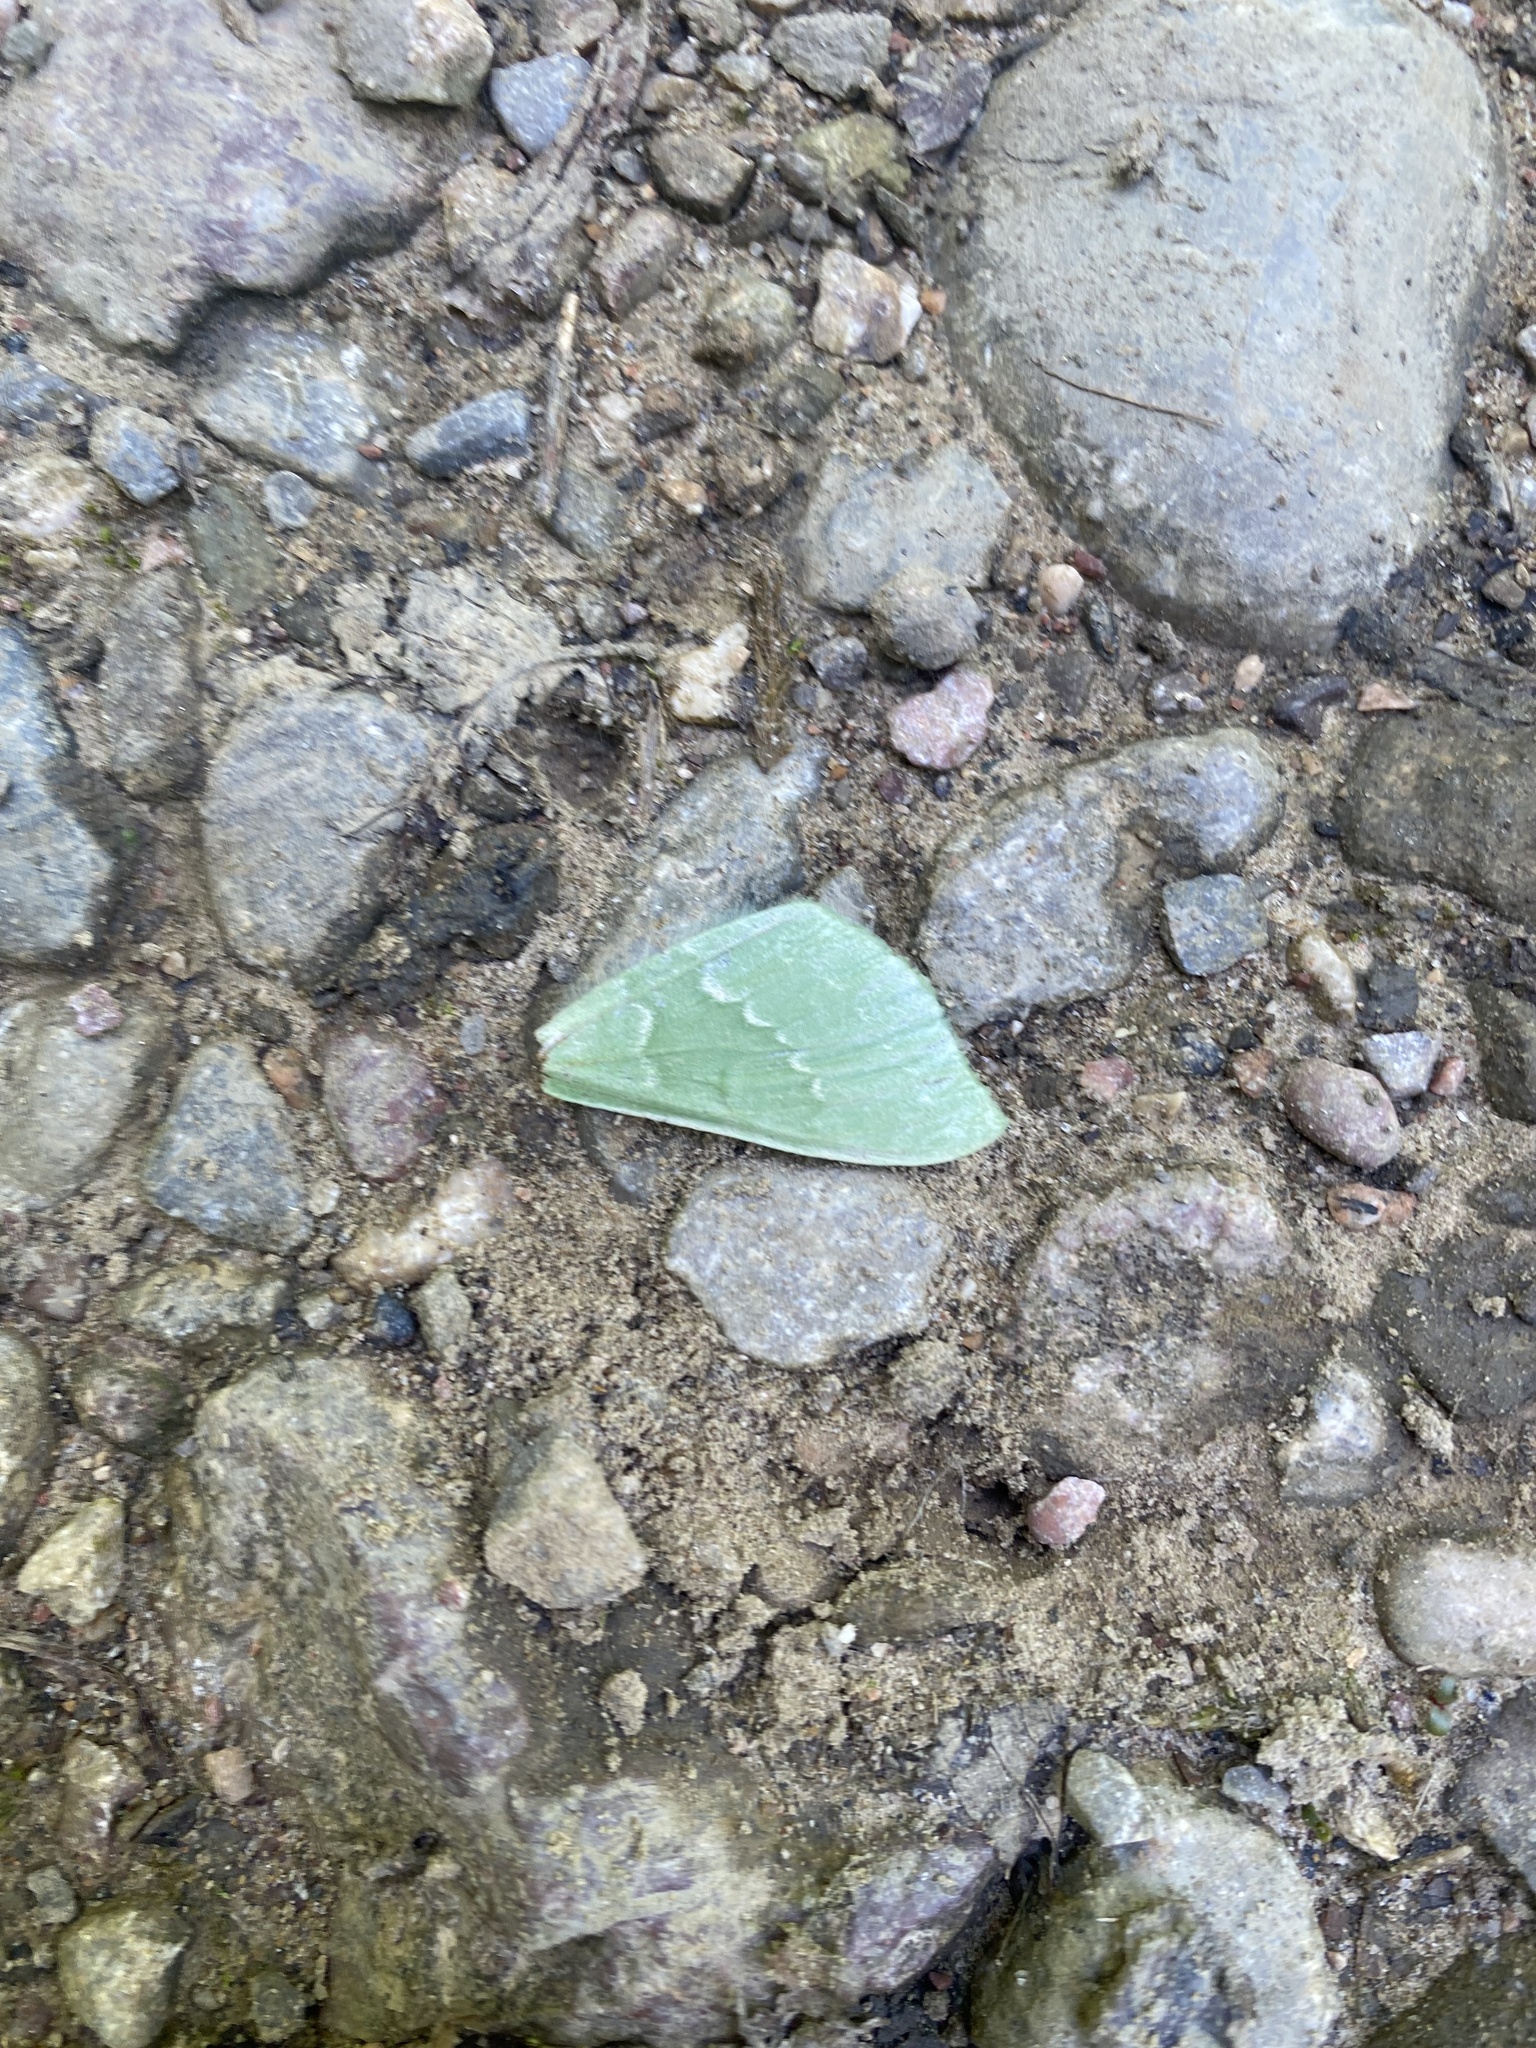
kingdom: Animalia
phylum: Arthropoda
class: Insecta
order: Lepidoptera
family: Geometridae
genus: Geometra
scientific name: Geometra papilionaria
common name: Large emerald
